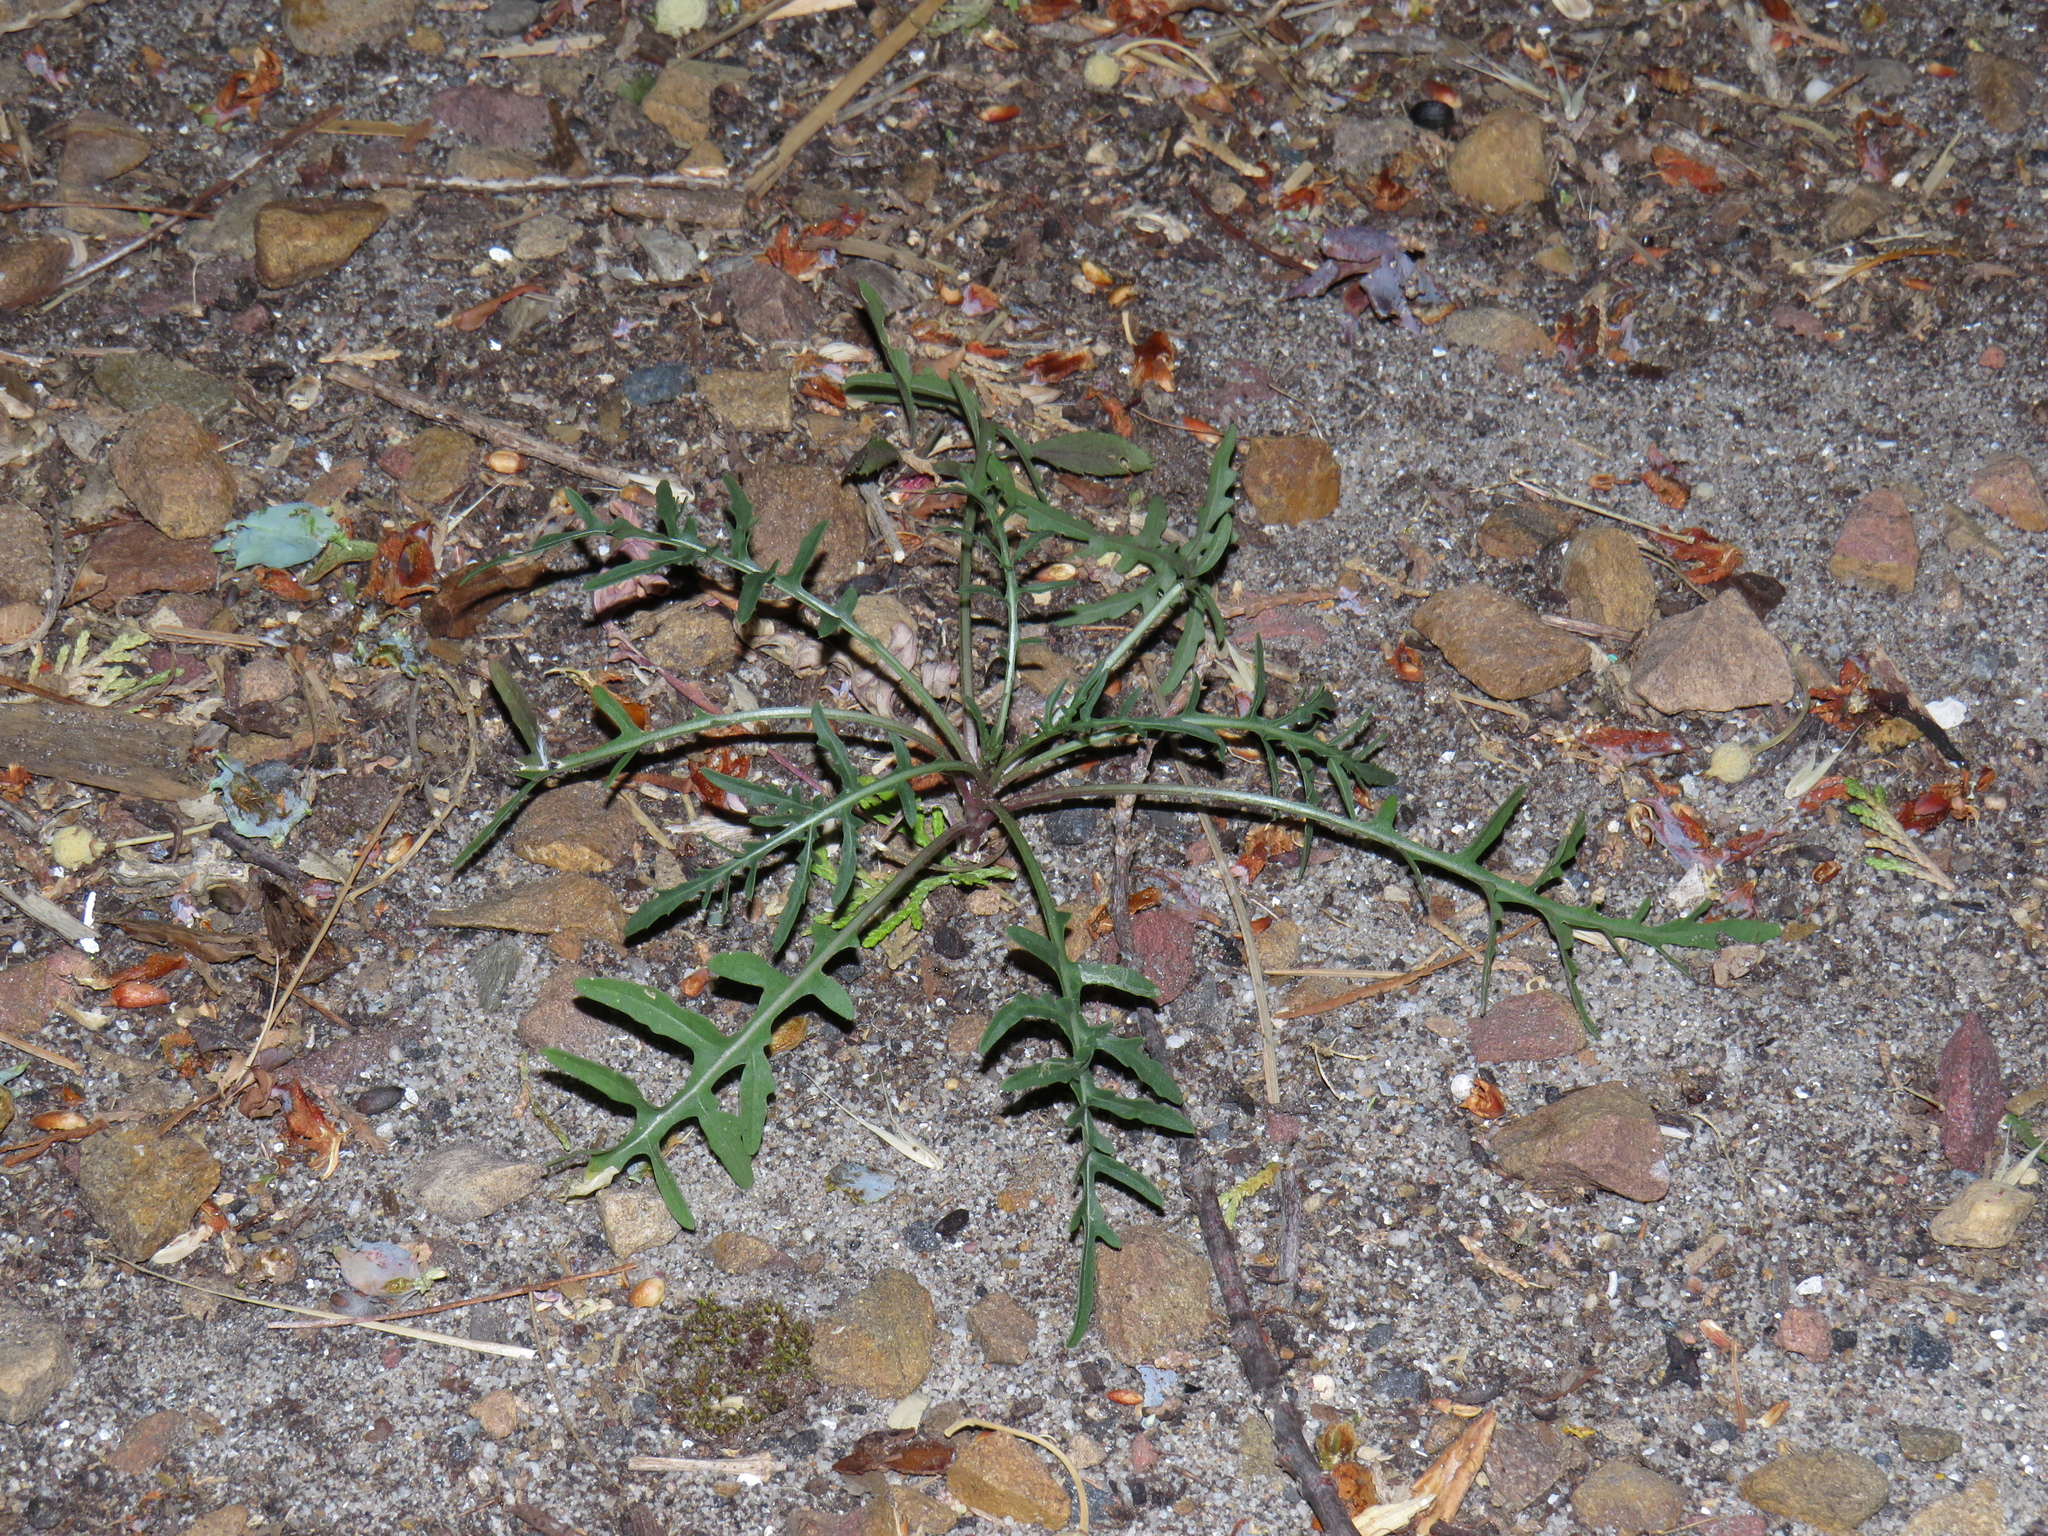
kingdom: Plantae
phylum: Tracheophyta
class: Magnoliopsida
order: Brassicales
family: Brassicaceae
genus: Diplotaxis
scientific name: Diplotaxis tenuifolia
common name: Perennial wall-rocket
